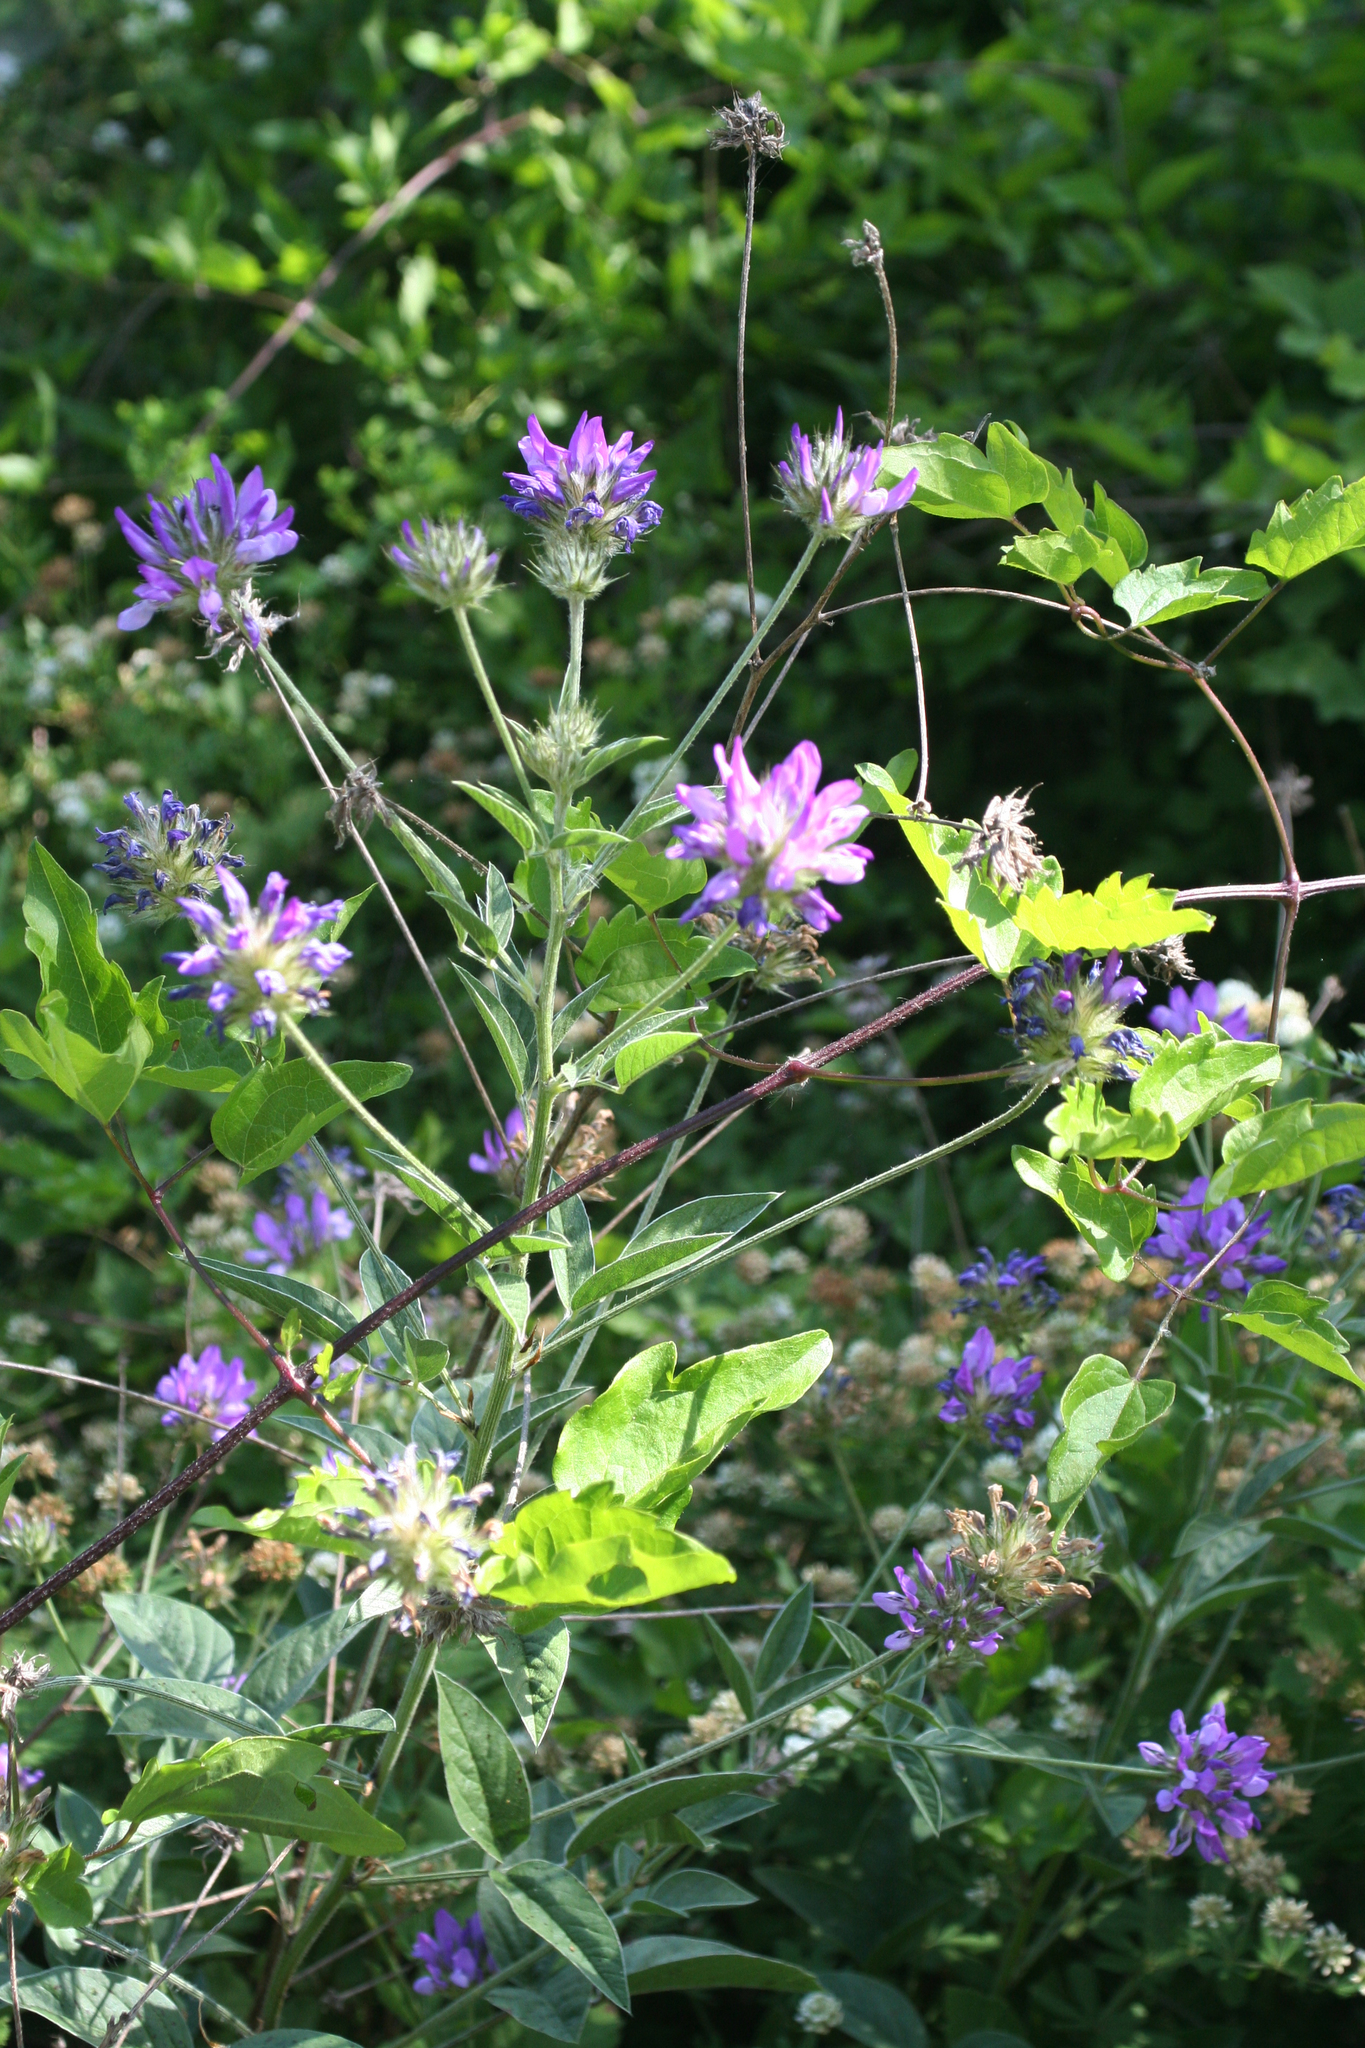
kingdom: Plantae
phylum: Tracheophyta
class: Magnoliopsida
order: Fabales
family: Fabaceae
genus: Bituminaria
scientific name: Bituminaria bituminosa
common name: Arabian pea
